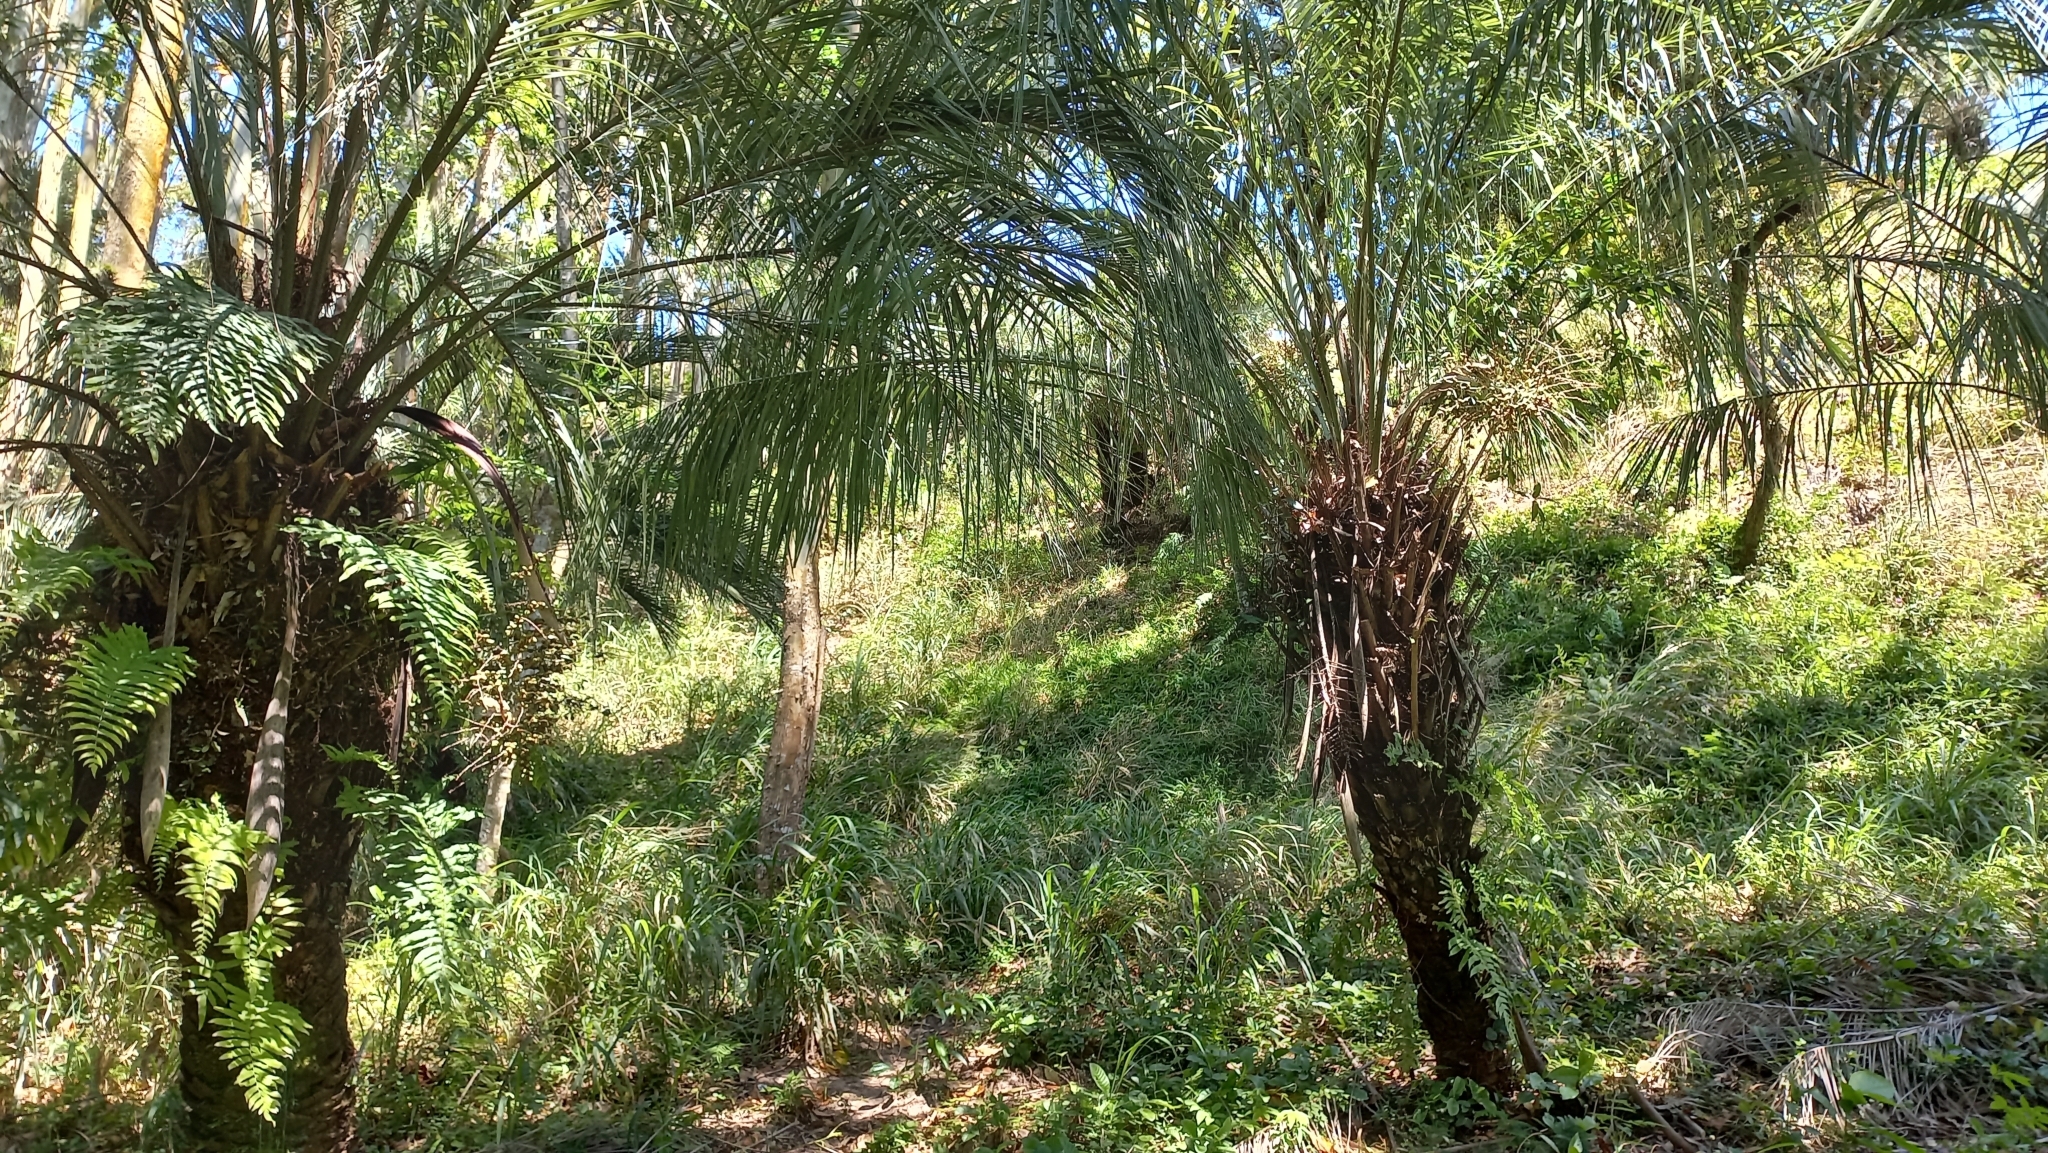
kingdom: Plantae
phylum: Tracheophyta
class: Liliopsida
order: Arecales
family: Arecaceae
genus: Butia
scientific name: Butia catarinensis
